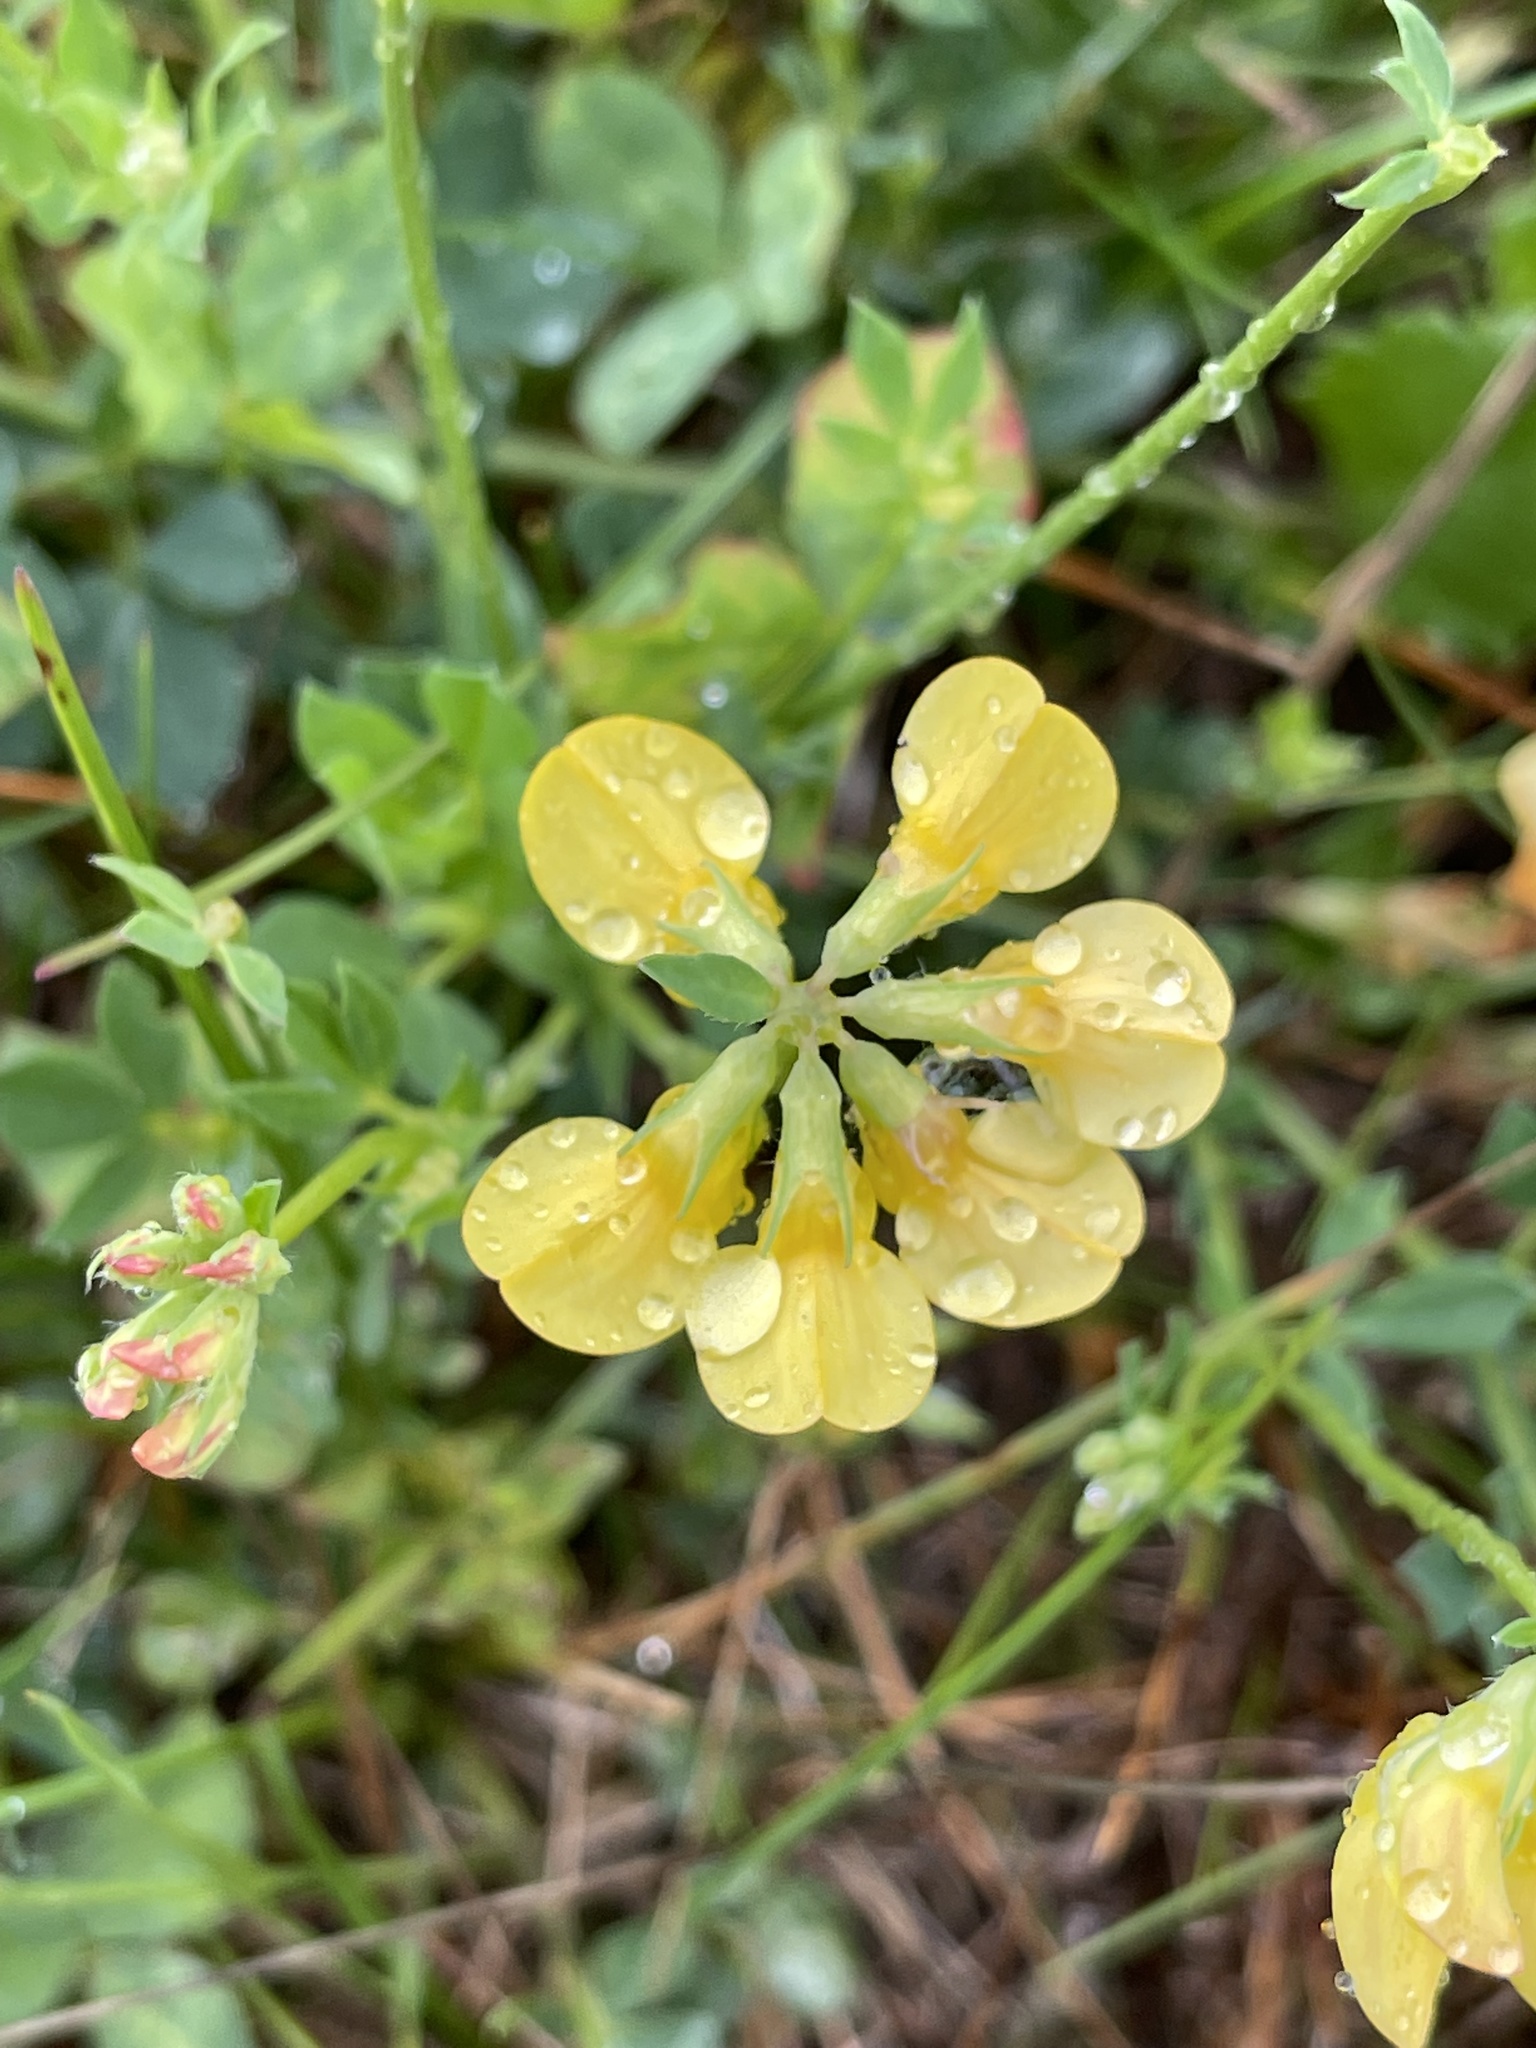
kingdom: Plantae
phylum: Tracheophyta
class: Magnoliopsida
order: Fabales
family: Fabaceae
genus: Lotus
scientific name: Lotus corniculatus
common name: Common bird's-foot-trefoil
